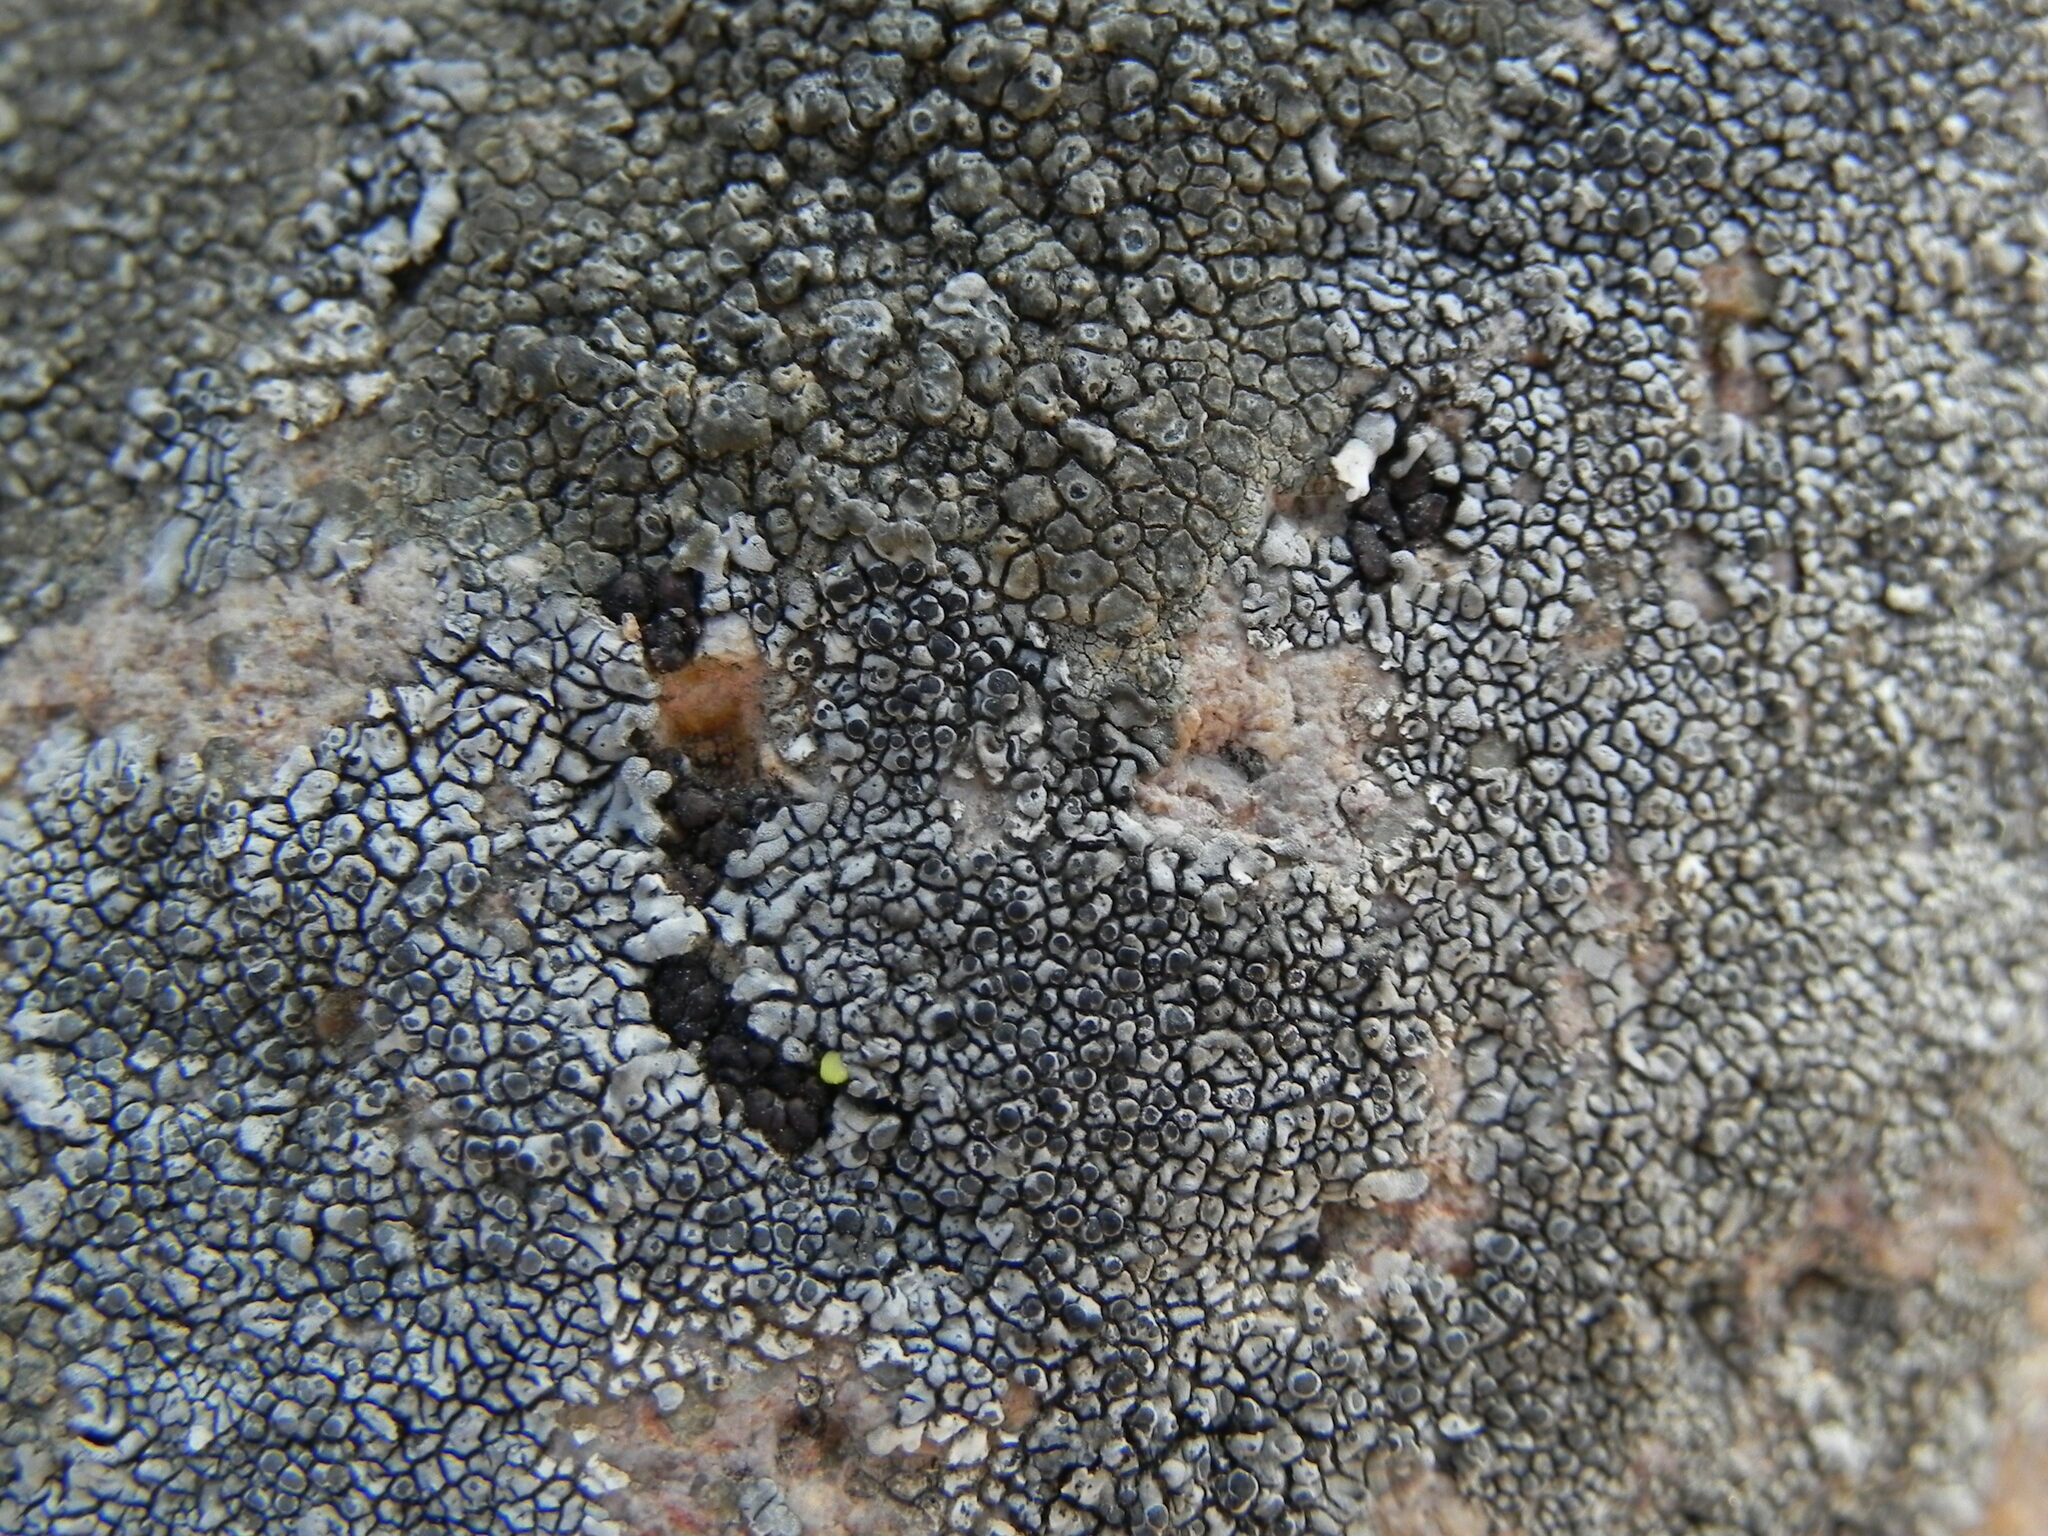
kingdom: Fungi
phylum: Ascomycota
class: Lecanoromycetes
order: Caliciales
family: Caliciaceae
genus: Dimelaena
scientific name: Dimelaena radiata
